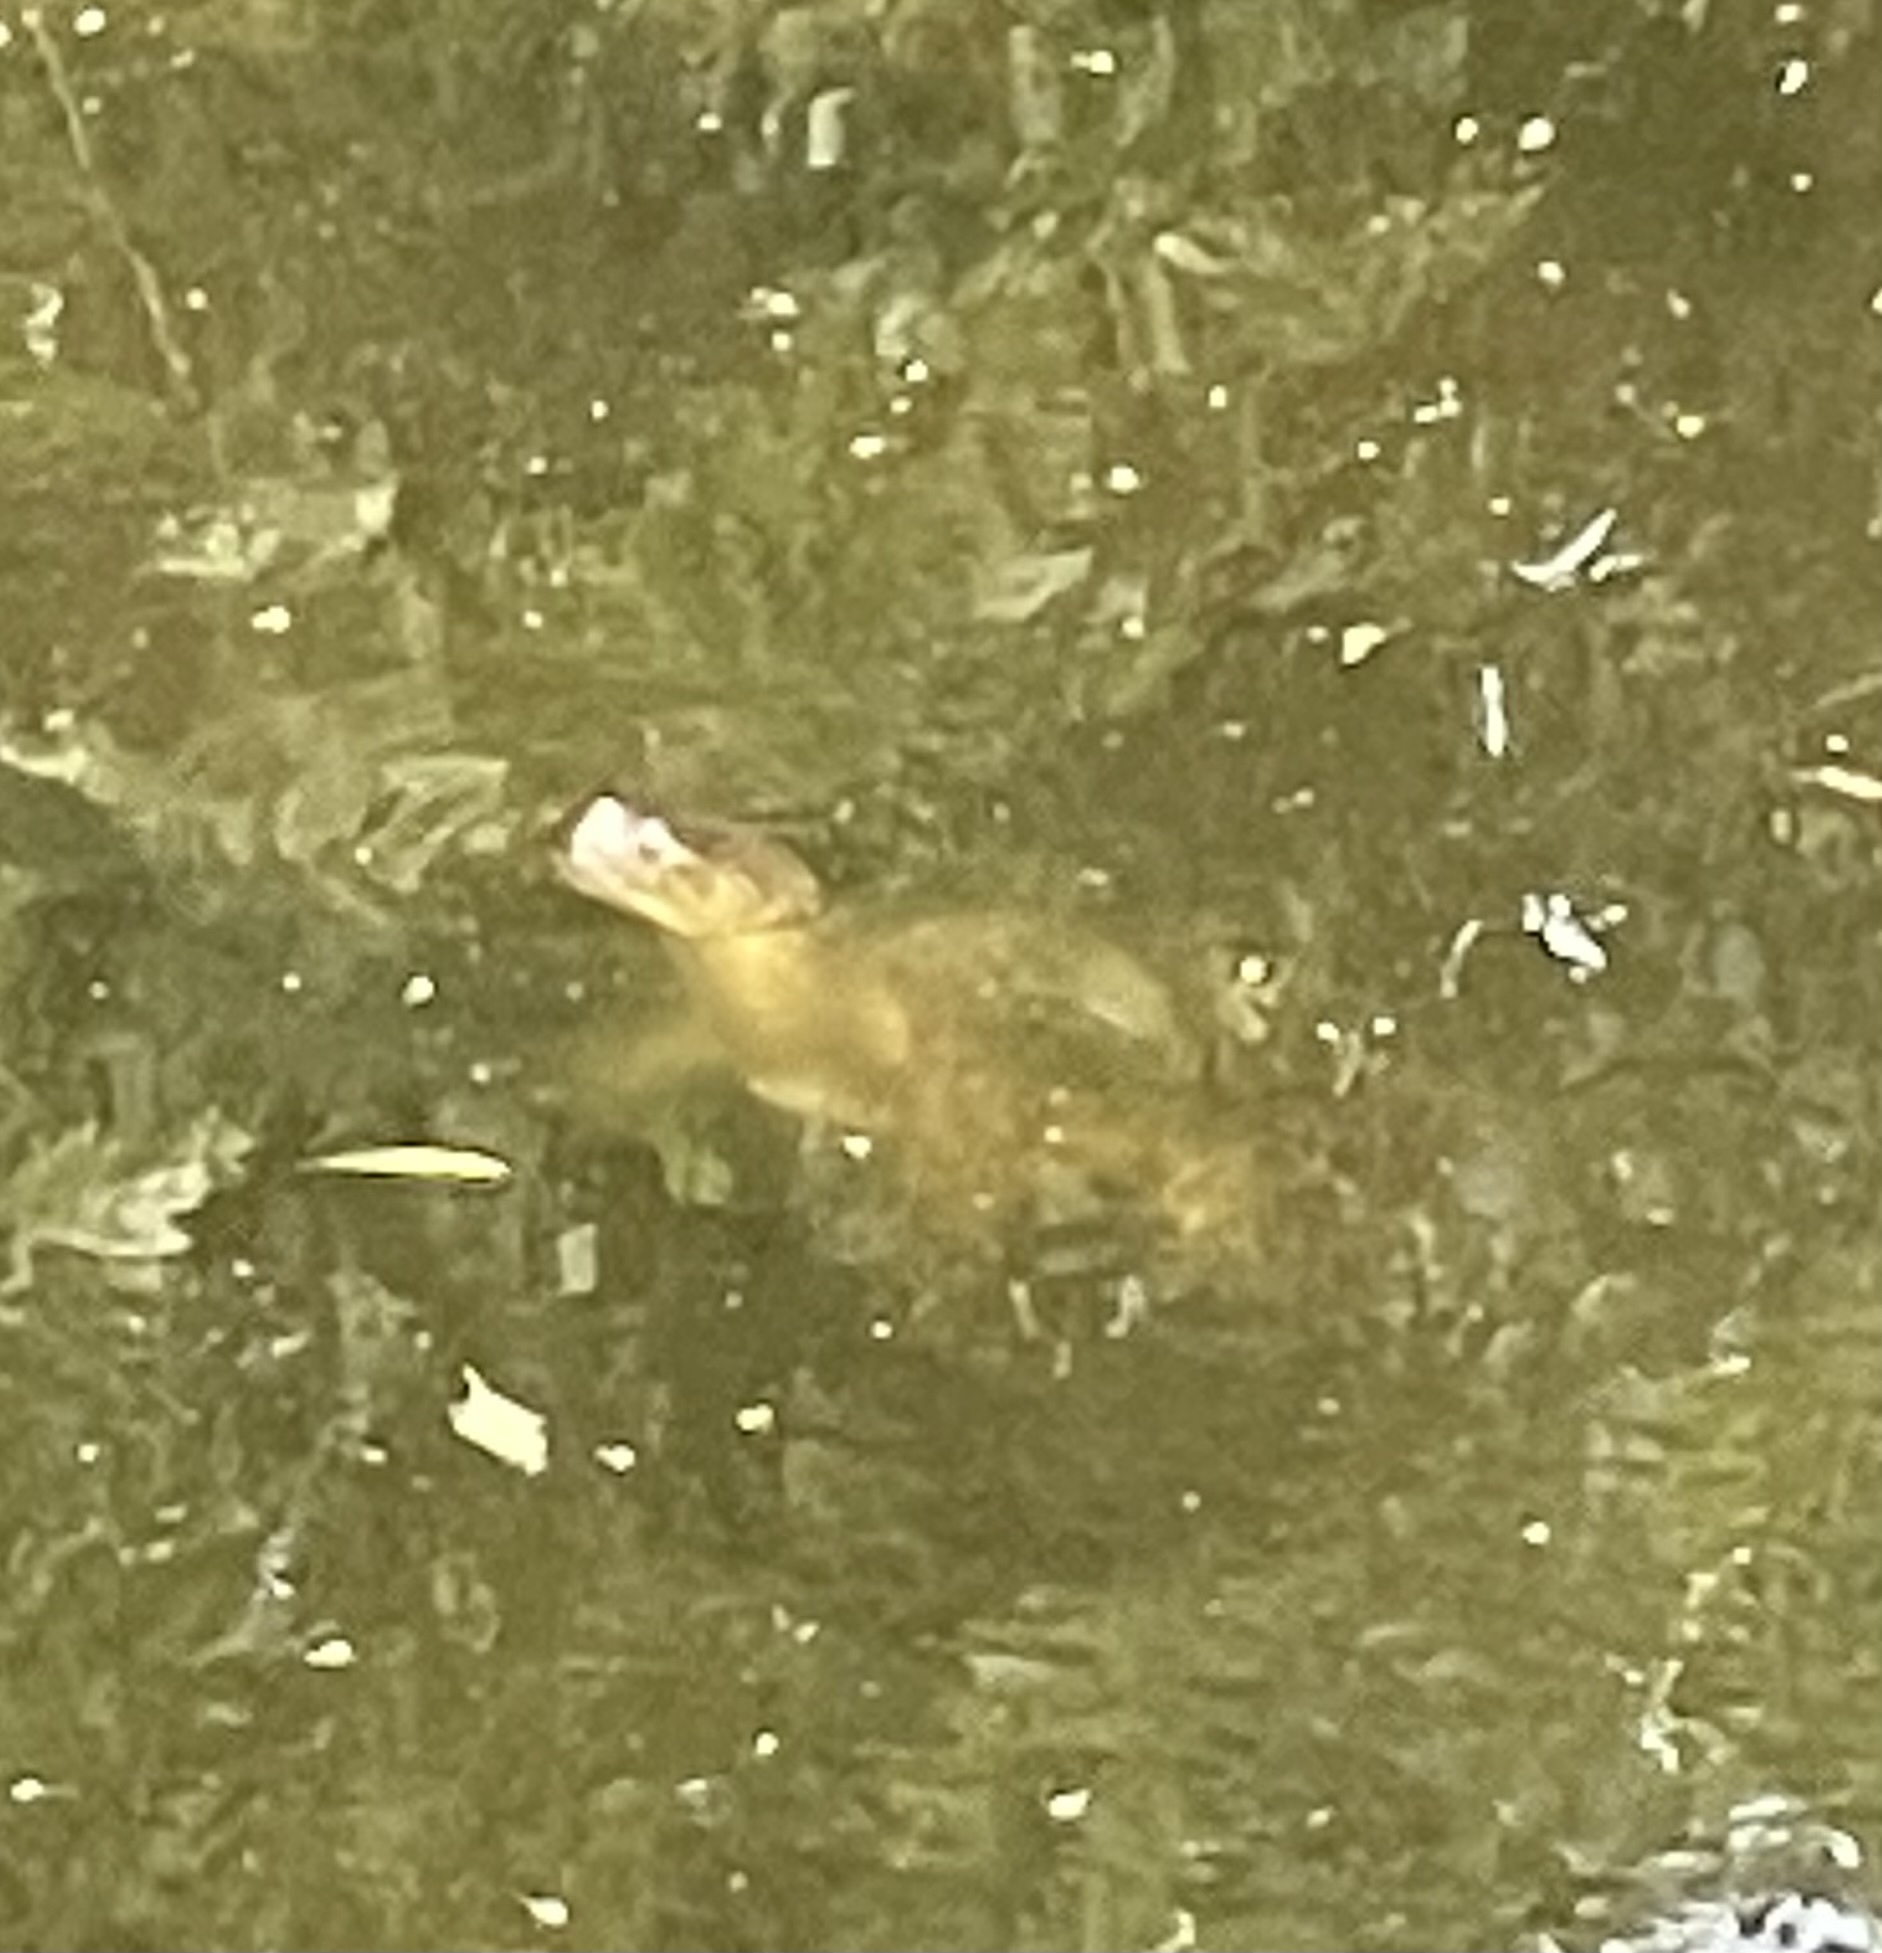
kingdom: Animalia
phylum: Chordata
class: Testudines
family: Chelydridae
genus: Chelydra
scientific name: Chelydra serpentina
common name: Common snapping turtle
